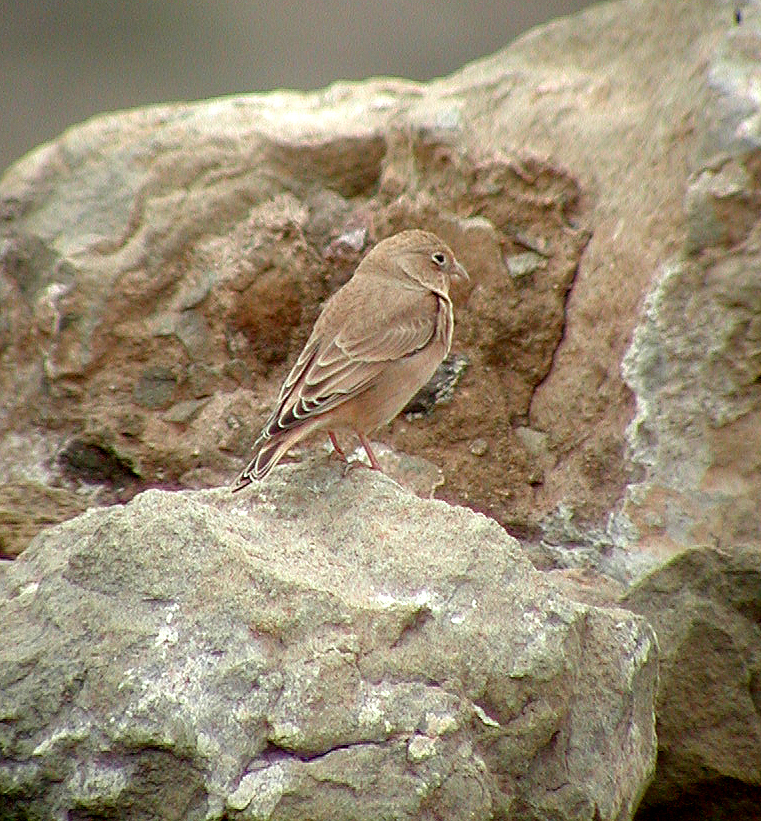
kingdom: Animalia
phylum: Chordata
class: Aves
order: Passeriformes
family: Fringillidae
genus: Bucanetes
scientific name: Bucanetes githagineus
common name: Trumpeter finch
